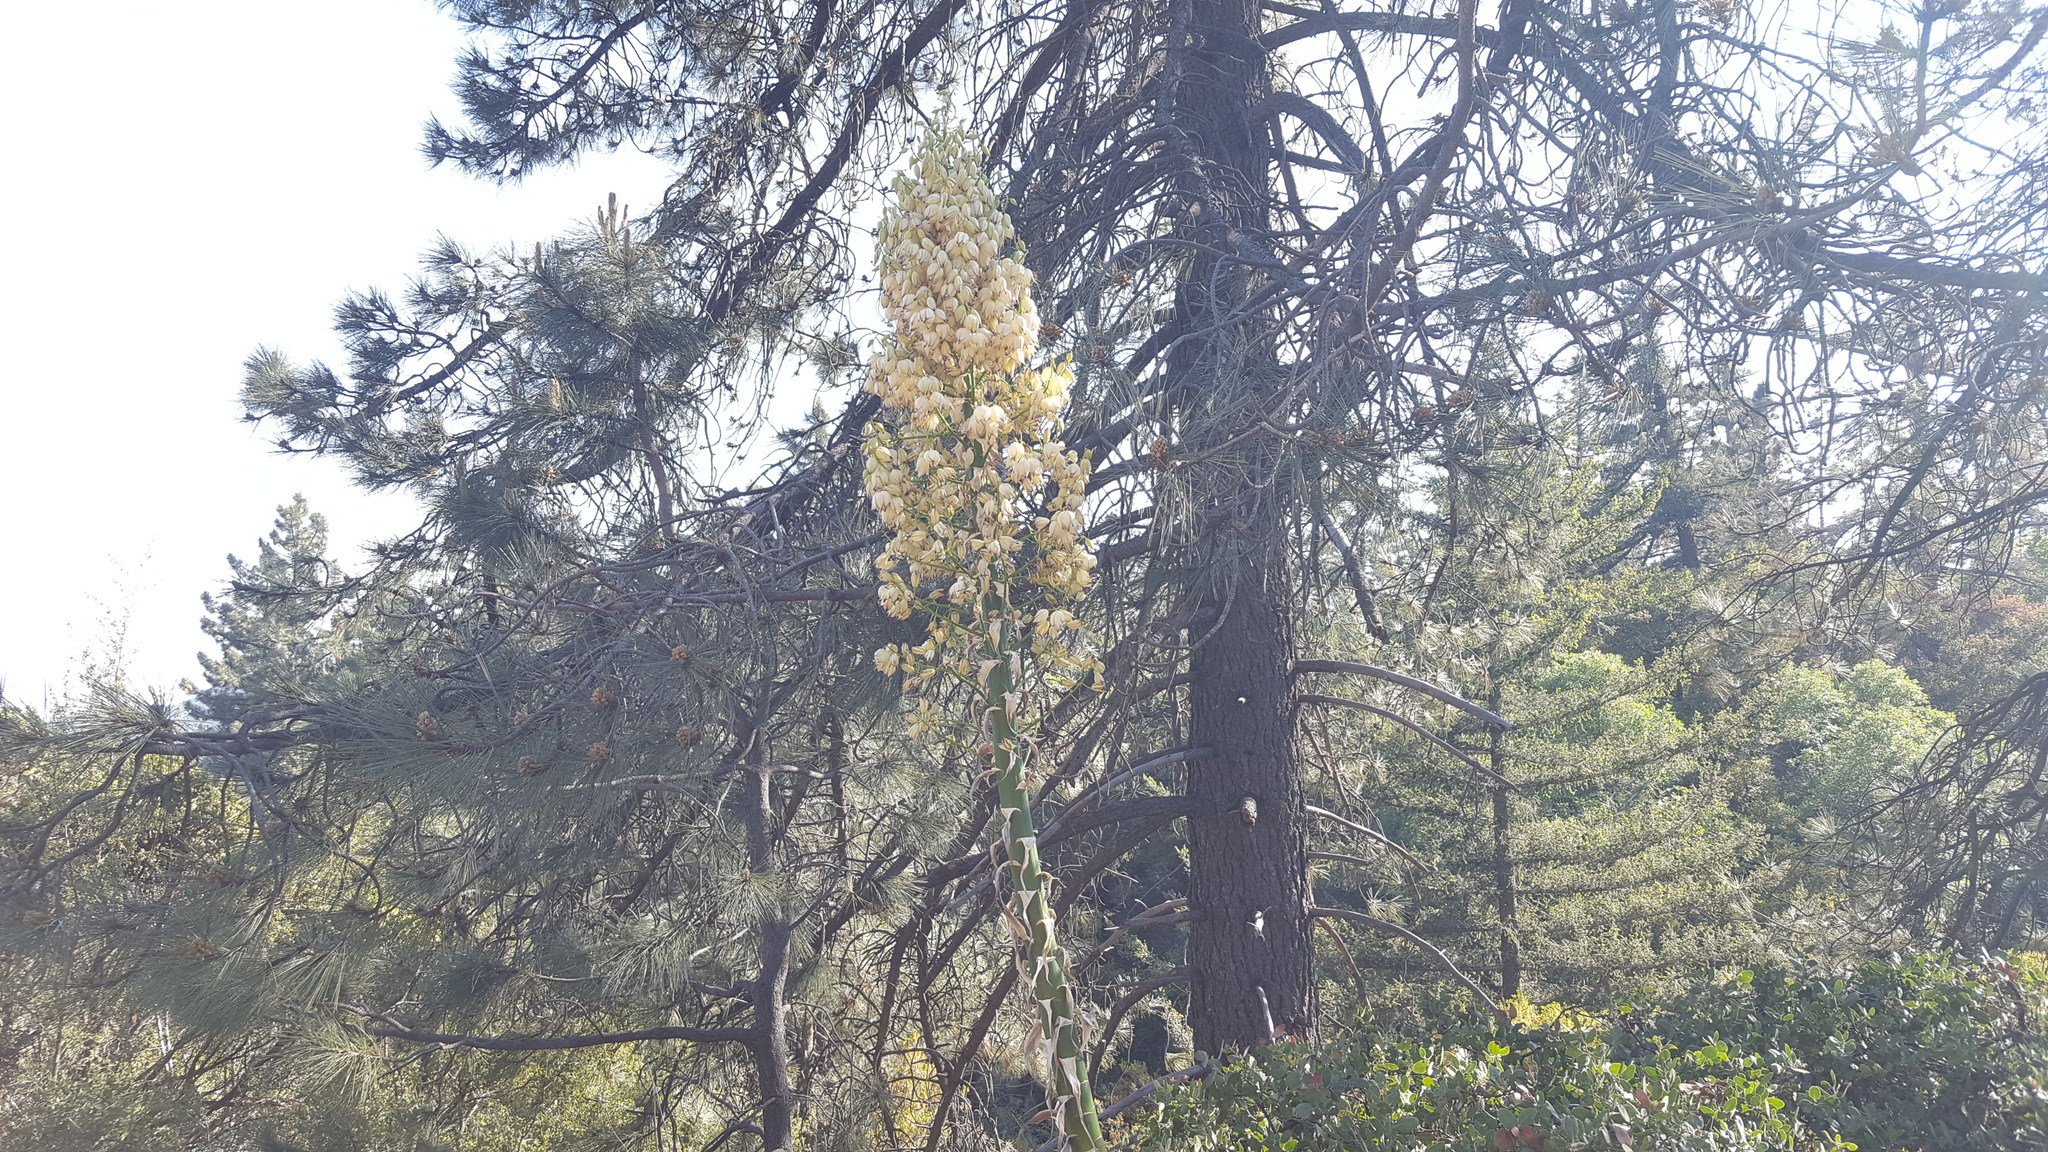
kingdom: Plantae
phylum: Tracheophyta
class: Liliopsida
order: Asparagales
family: Asparagaceae
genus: Hesperoyucca
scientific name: Hesperoyucca whipplei
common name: Our lord's-candle
